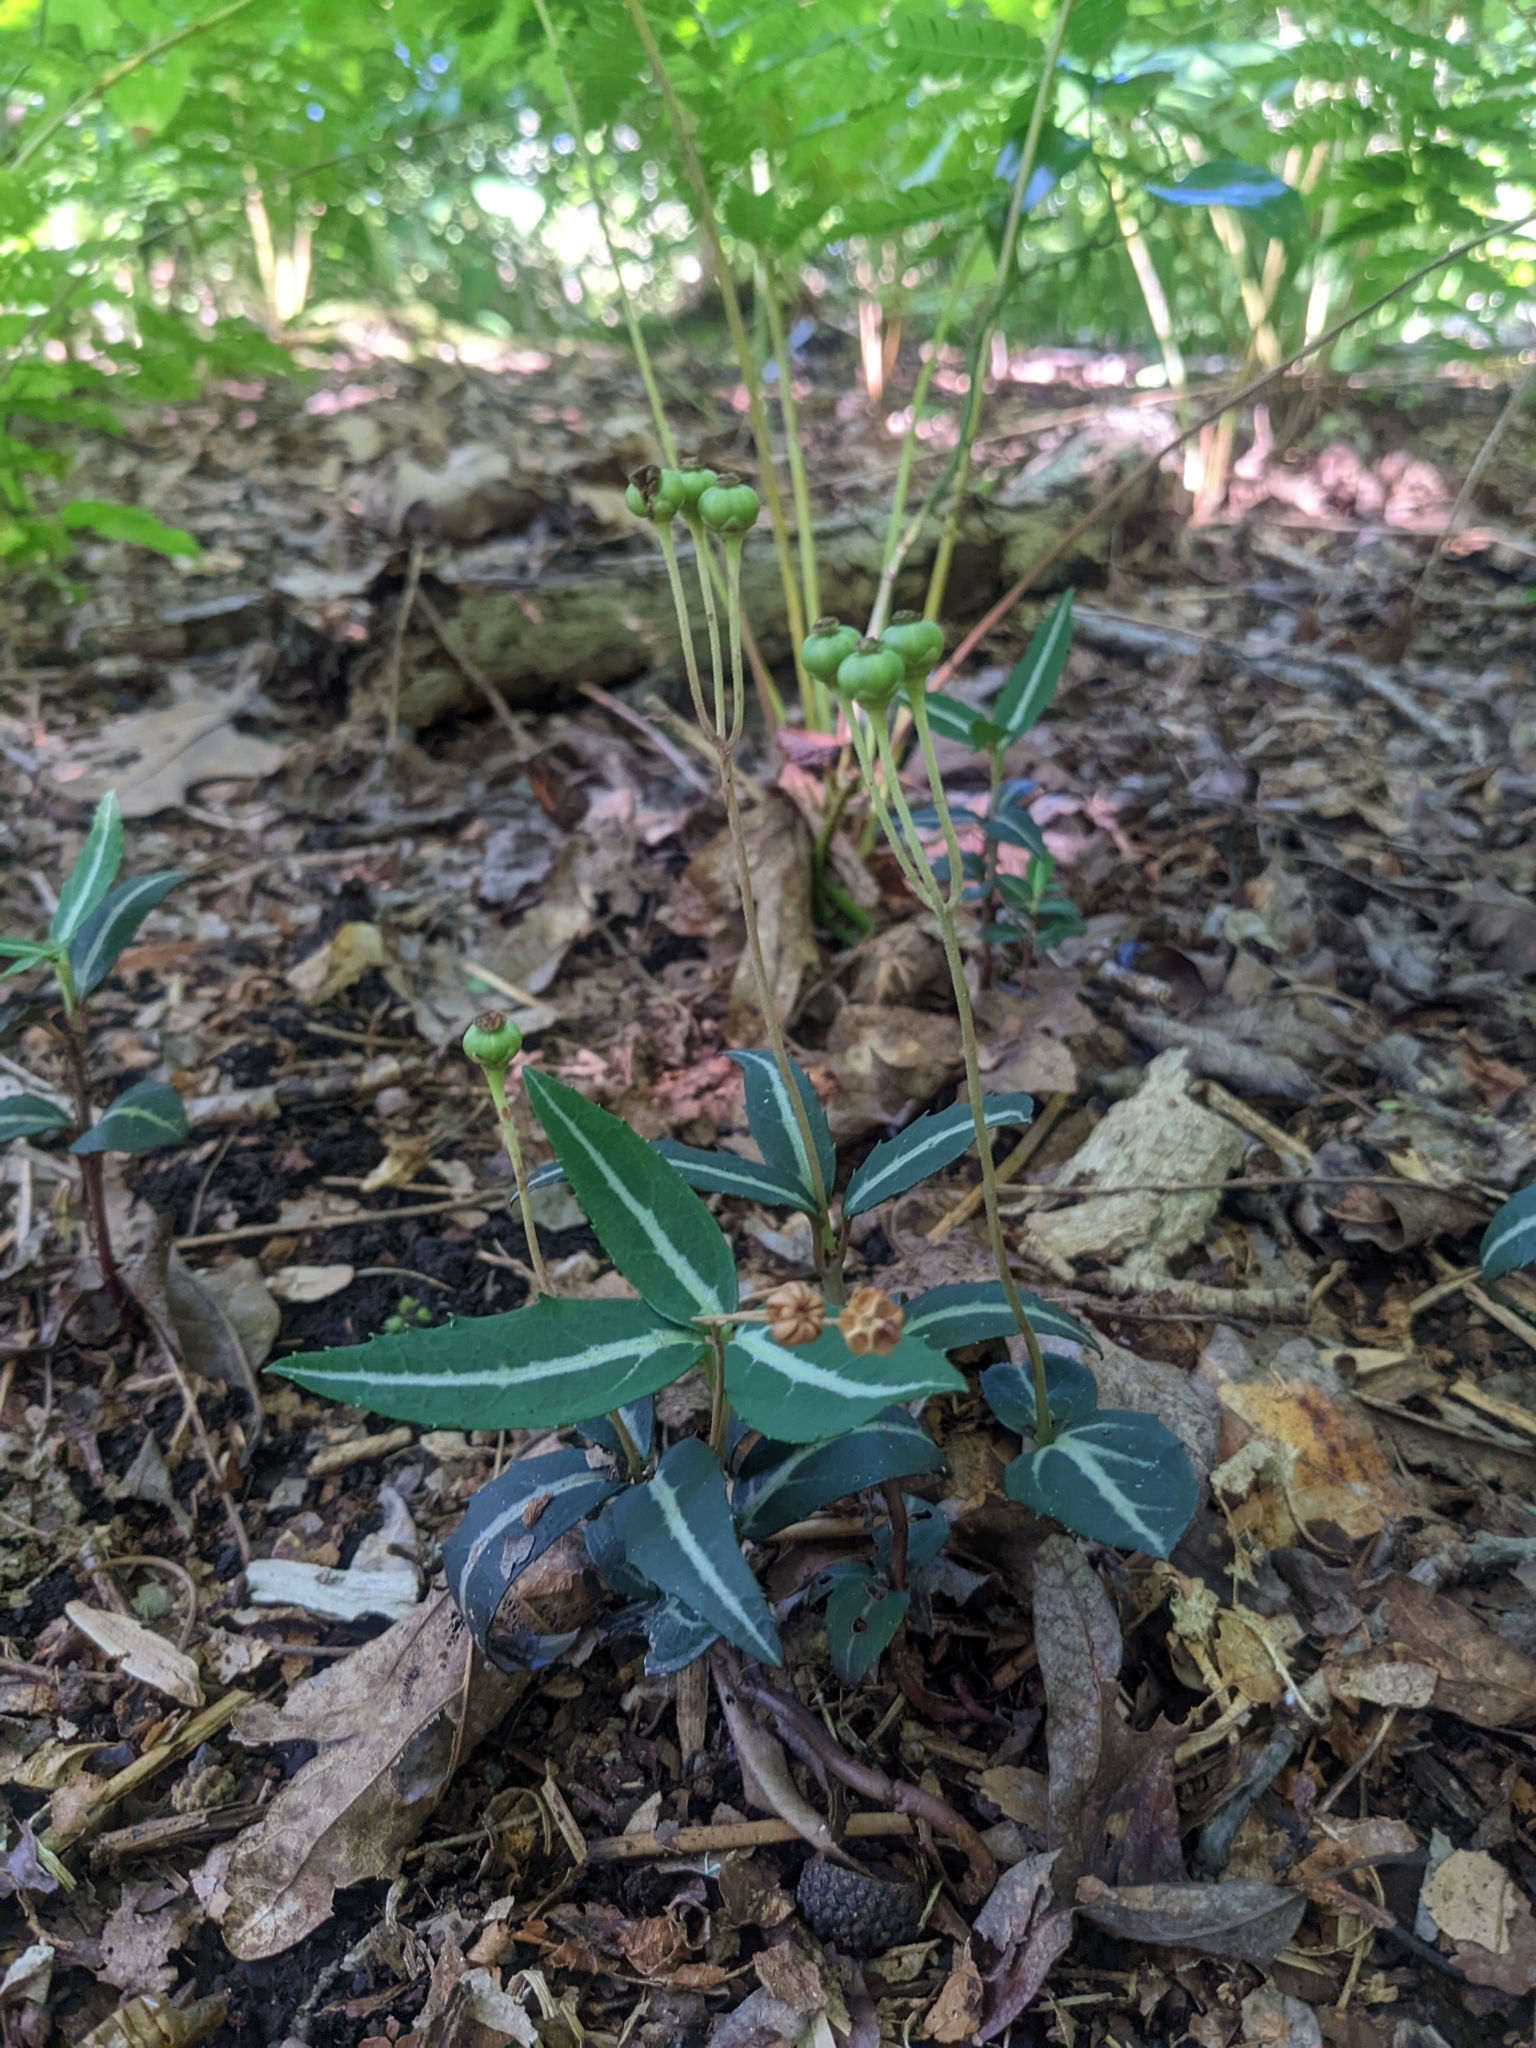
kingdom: Plantae
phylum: Tracheophyta
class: Magnoliopsida
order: Ericales
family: Ericaceae
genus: Chimaphila
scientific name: Chimaphila maculata
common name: Spotted pipsissewa
